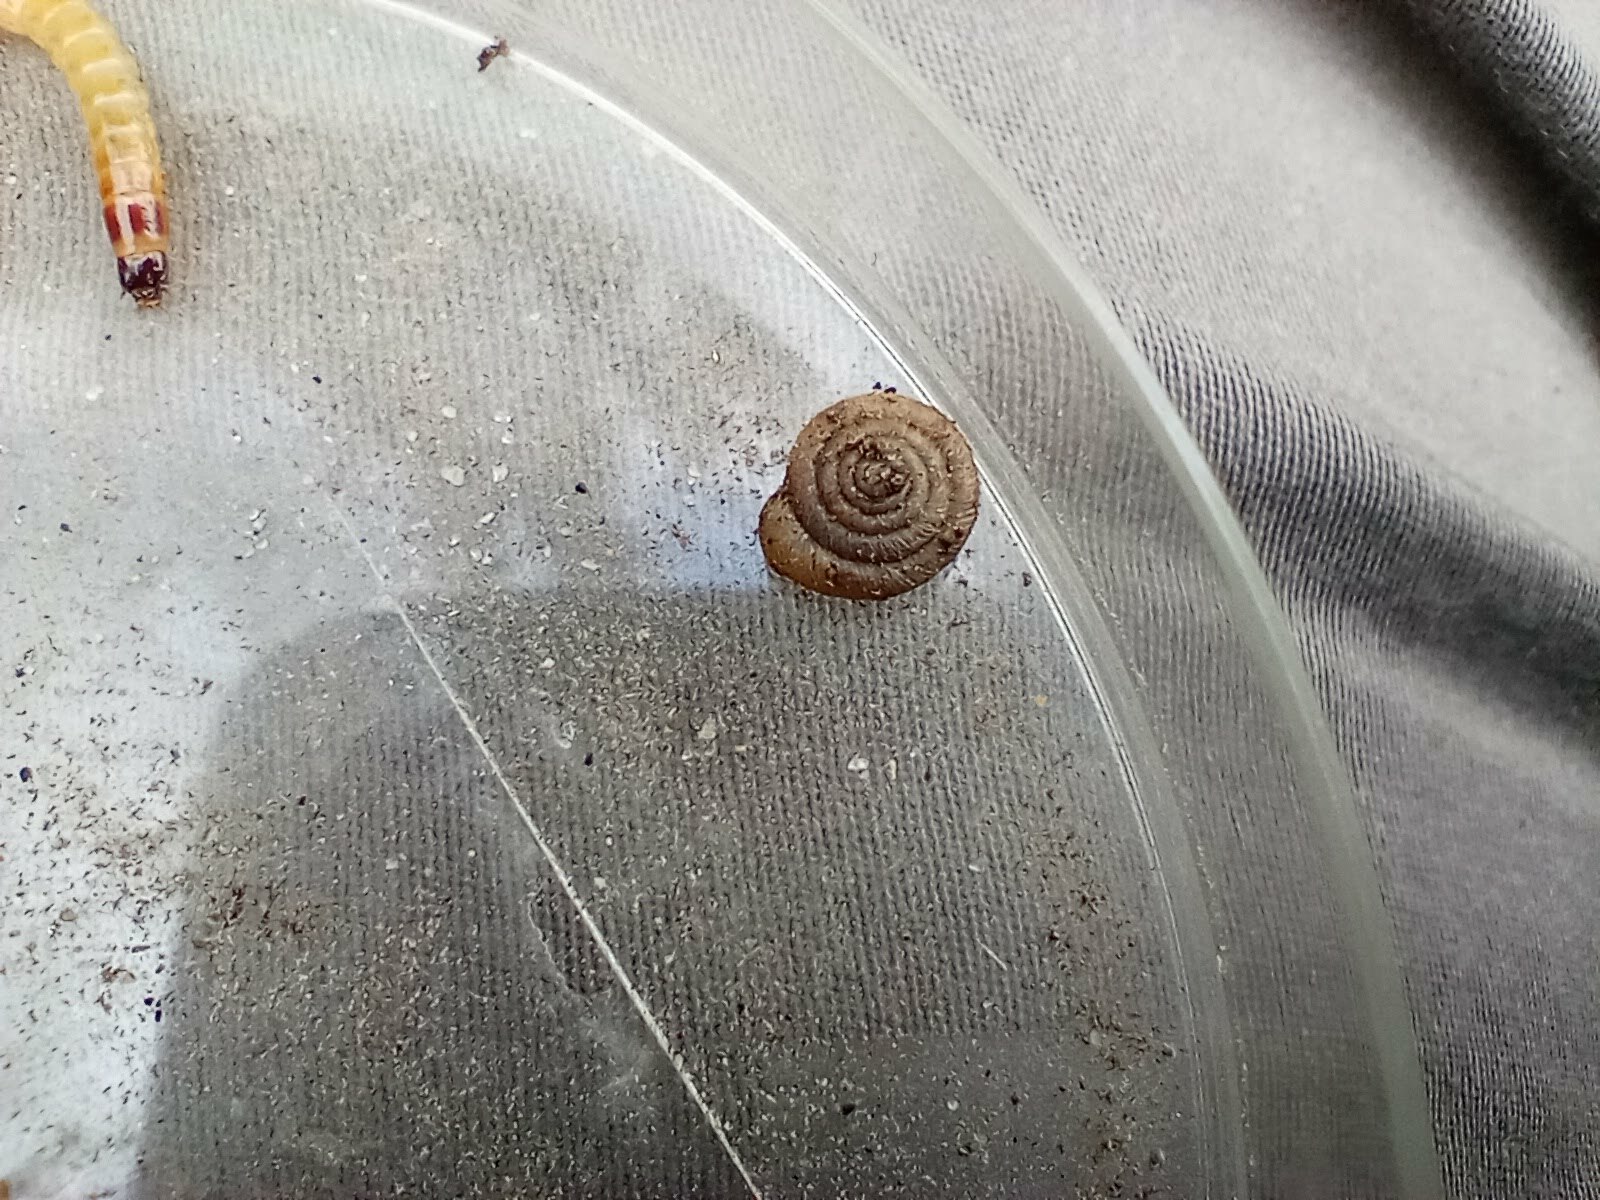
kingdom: Animalia
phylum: Mollusca
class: Gastropoda
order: Stylommatophora
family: Polygyridae
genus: Polygyra
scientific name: Polygyra cereolus
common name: Southern flatcone snail
